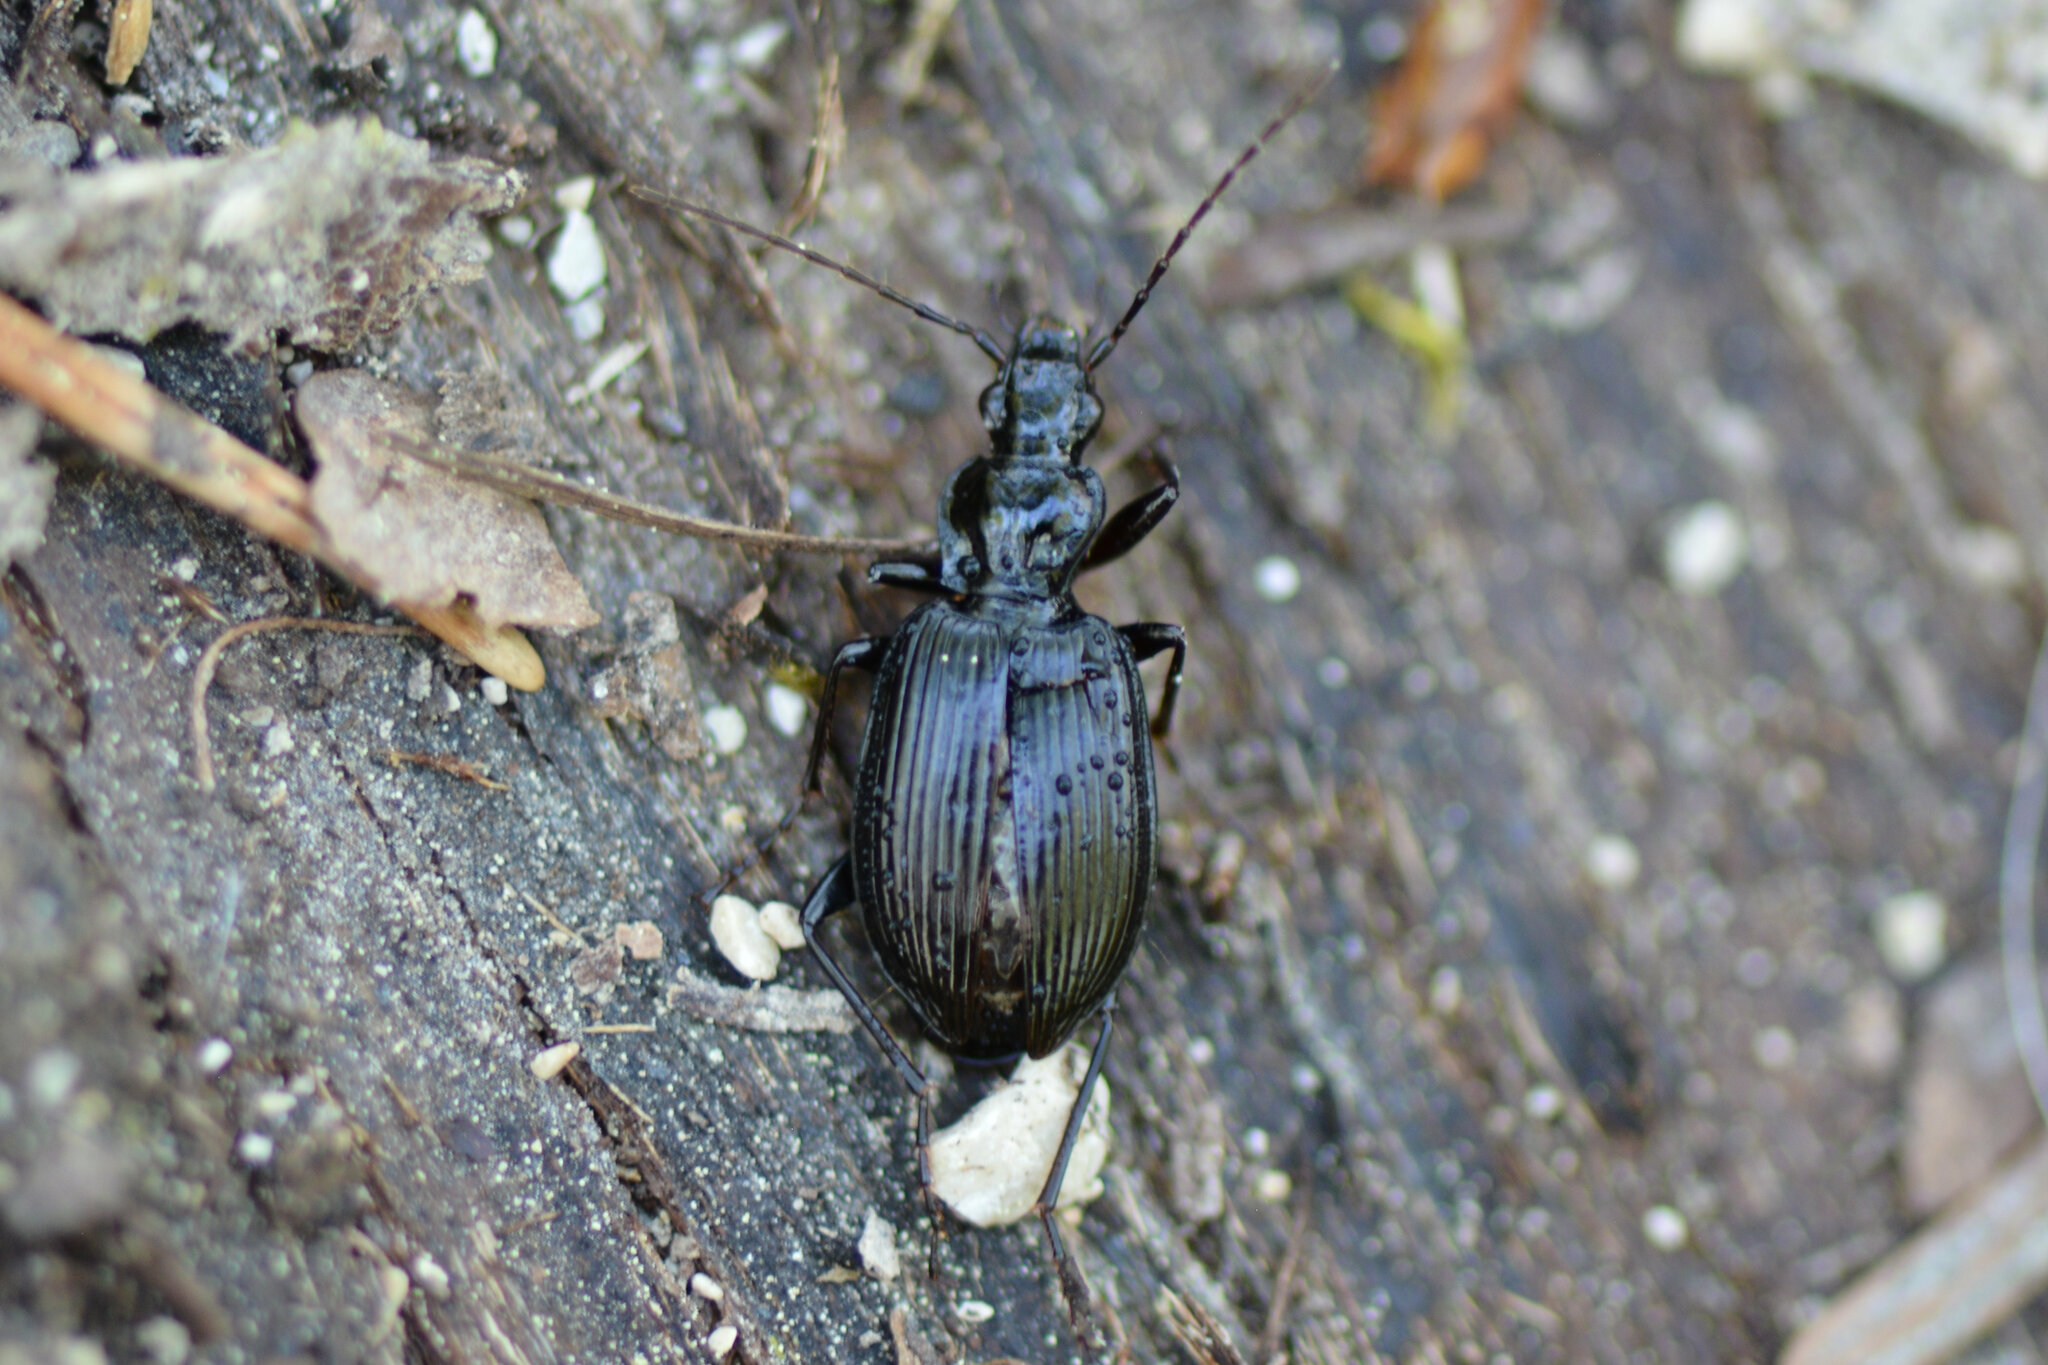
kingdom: Animalia
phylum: Arthropoda
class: Insecta
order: Coleoptera
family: Carabidae
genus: Platynus
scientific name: Platynus assimilis
